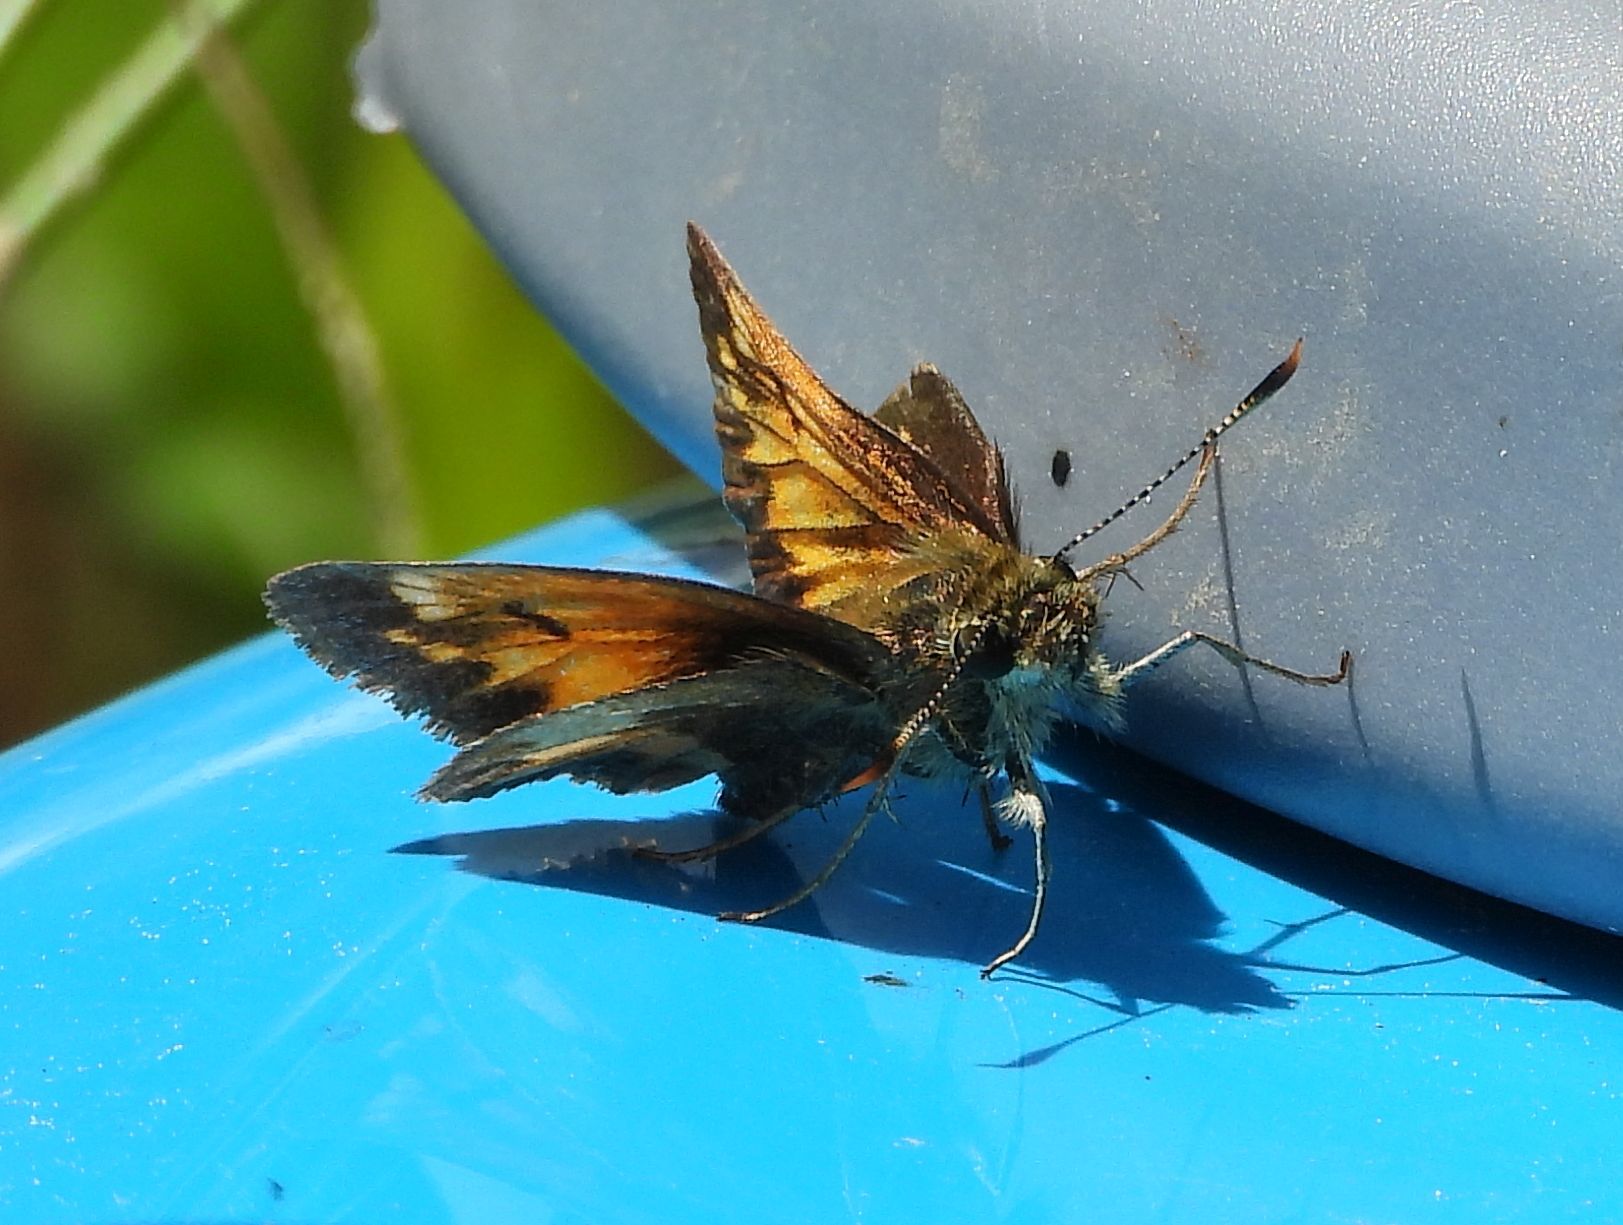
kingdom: Animalia
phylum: Arthropoda
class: Insecta
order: Lepidoptera
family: Hesperiidae
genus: Lon
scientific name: Lon hobomok
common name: Hobomok skipper
